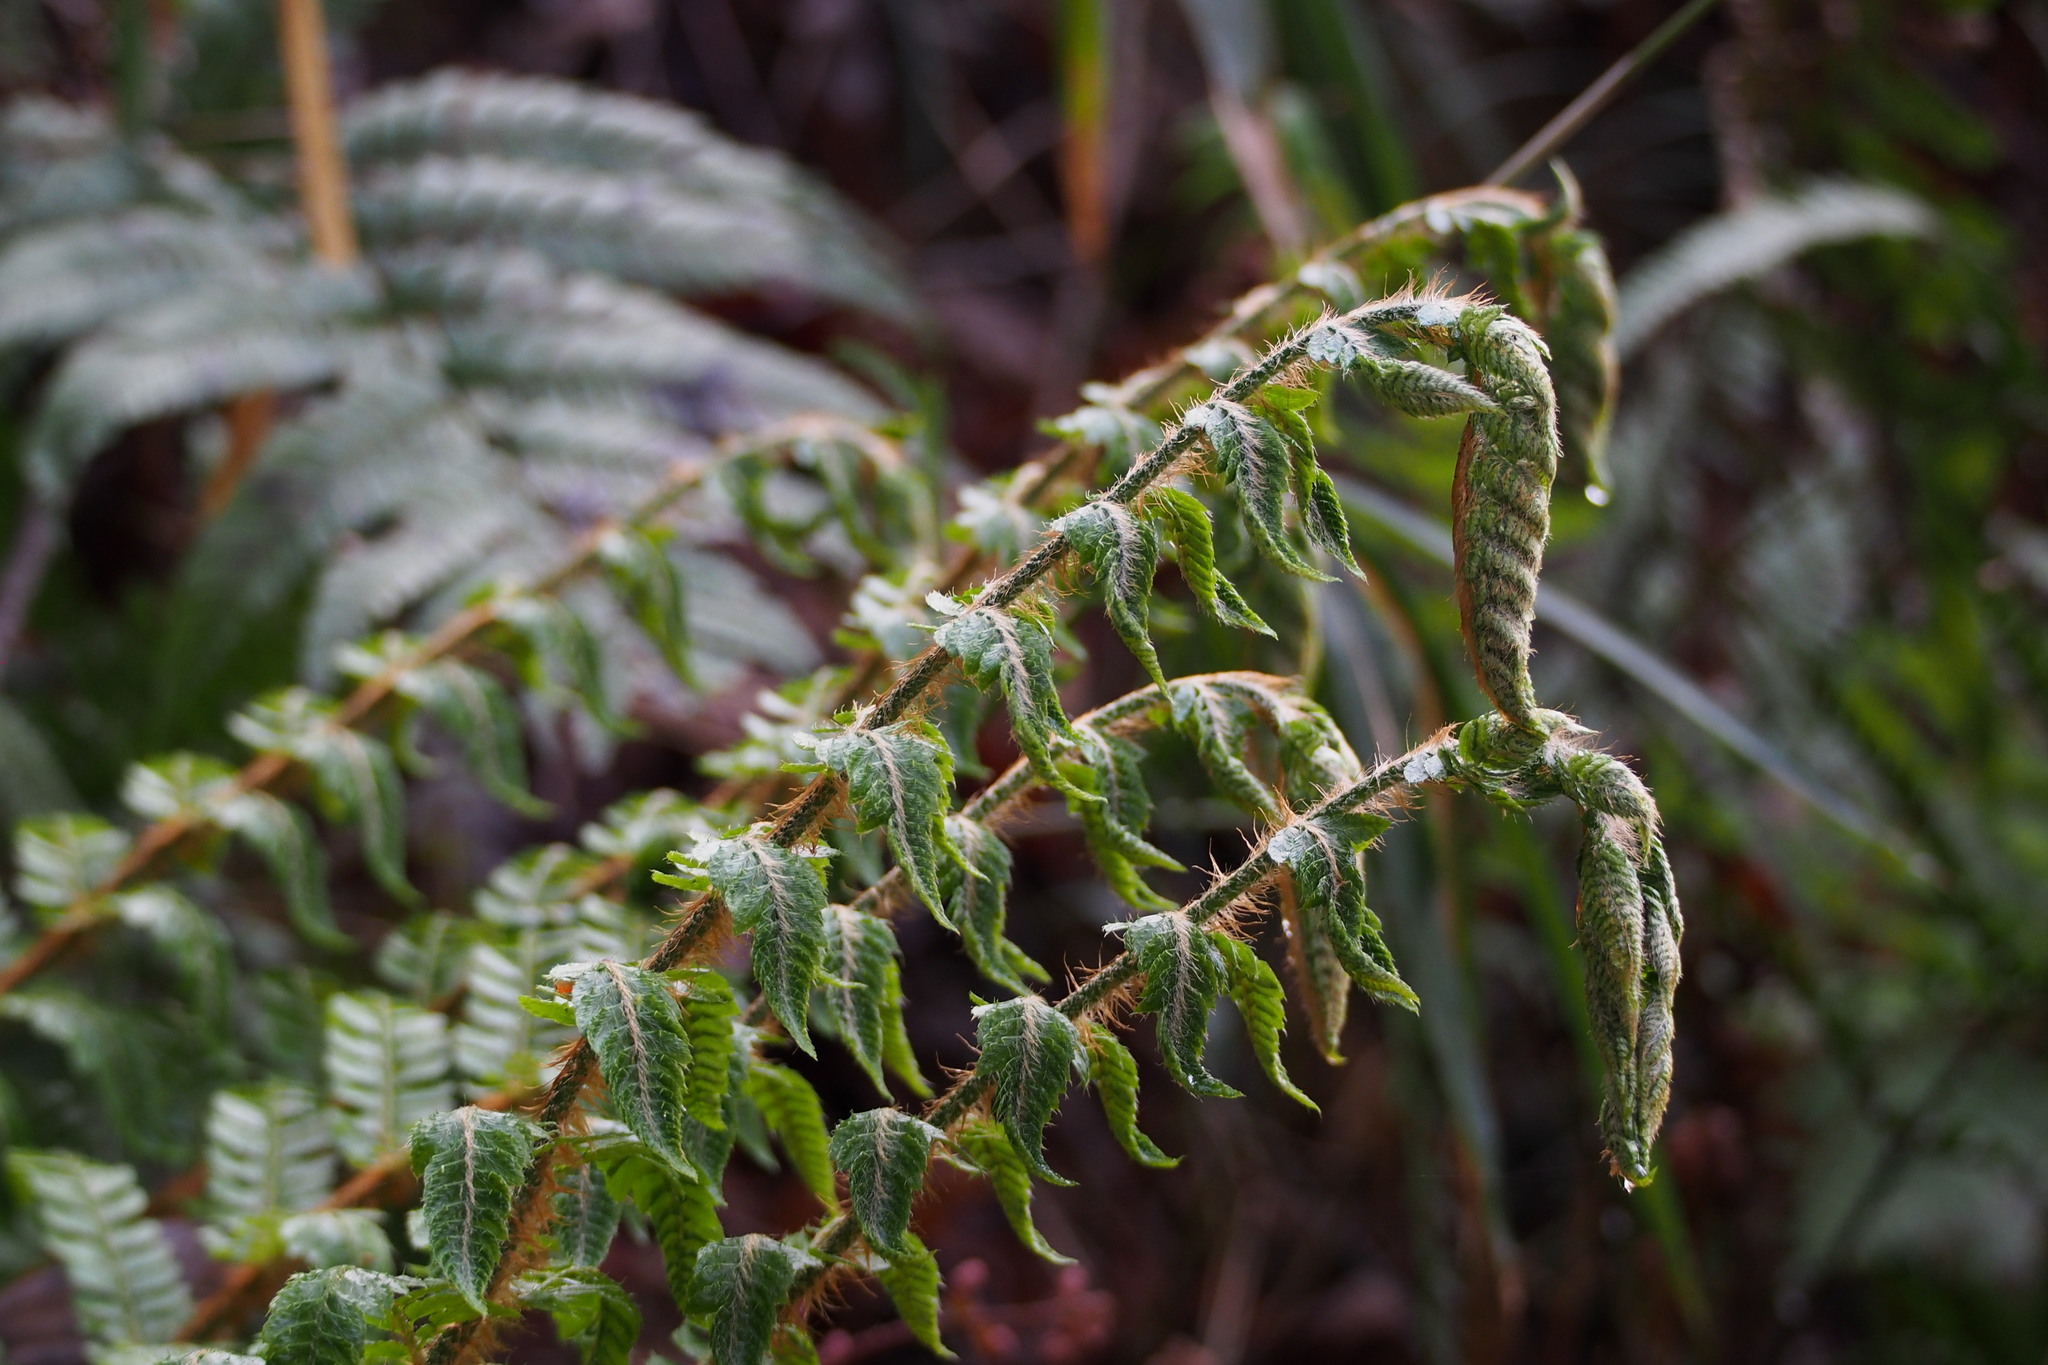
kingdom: Plantae
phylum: Tracheophyta
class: Polypodiopsida
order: Polypodiales
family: Dryopteridaceae
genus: Polystichum
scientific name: Polystichum luctuosum
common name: Korean rockfern
